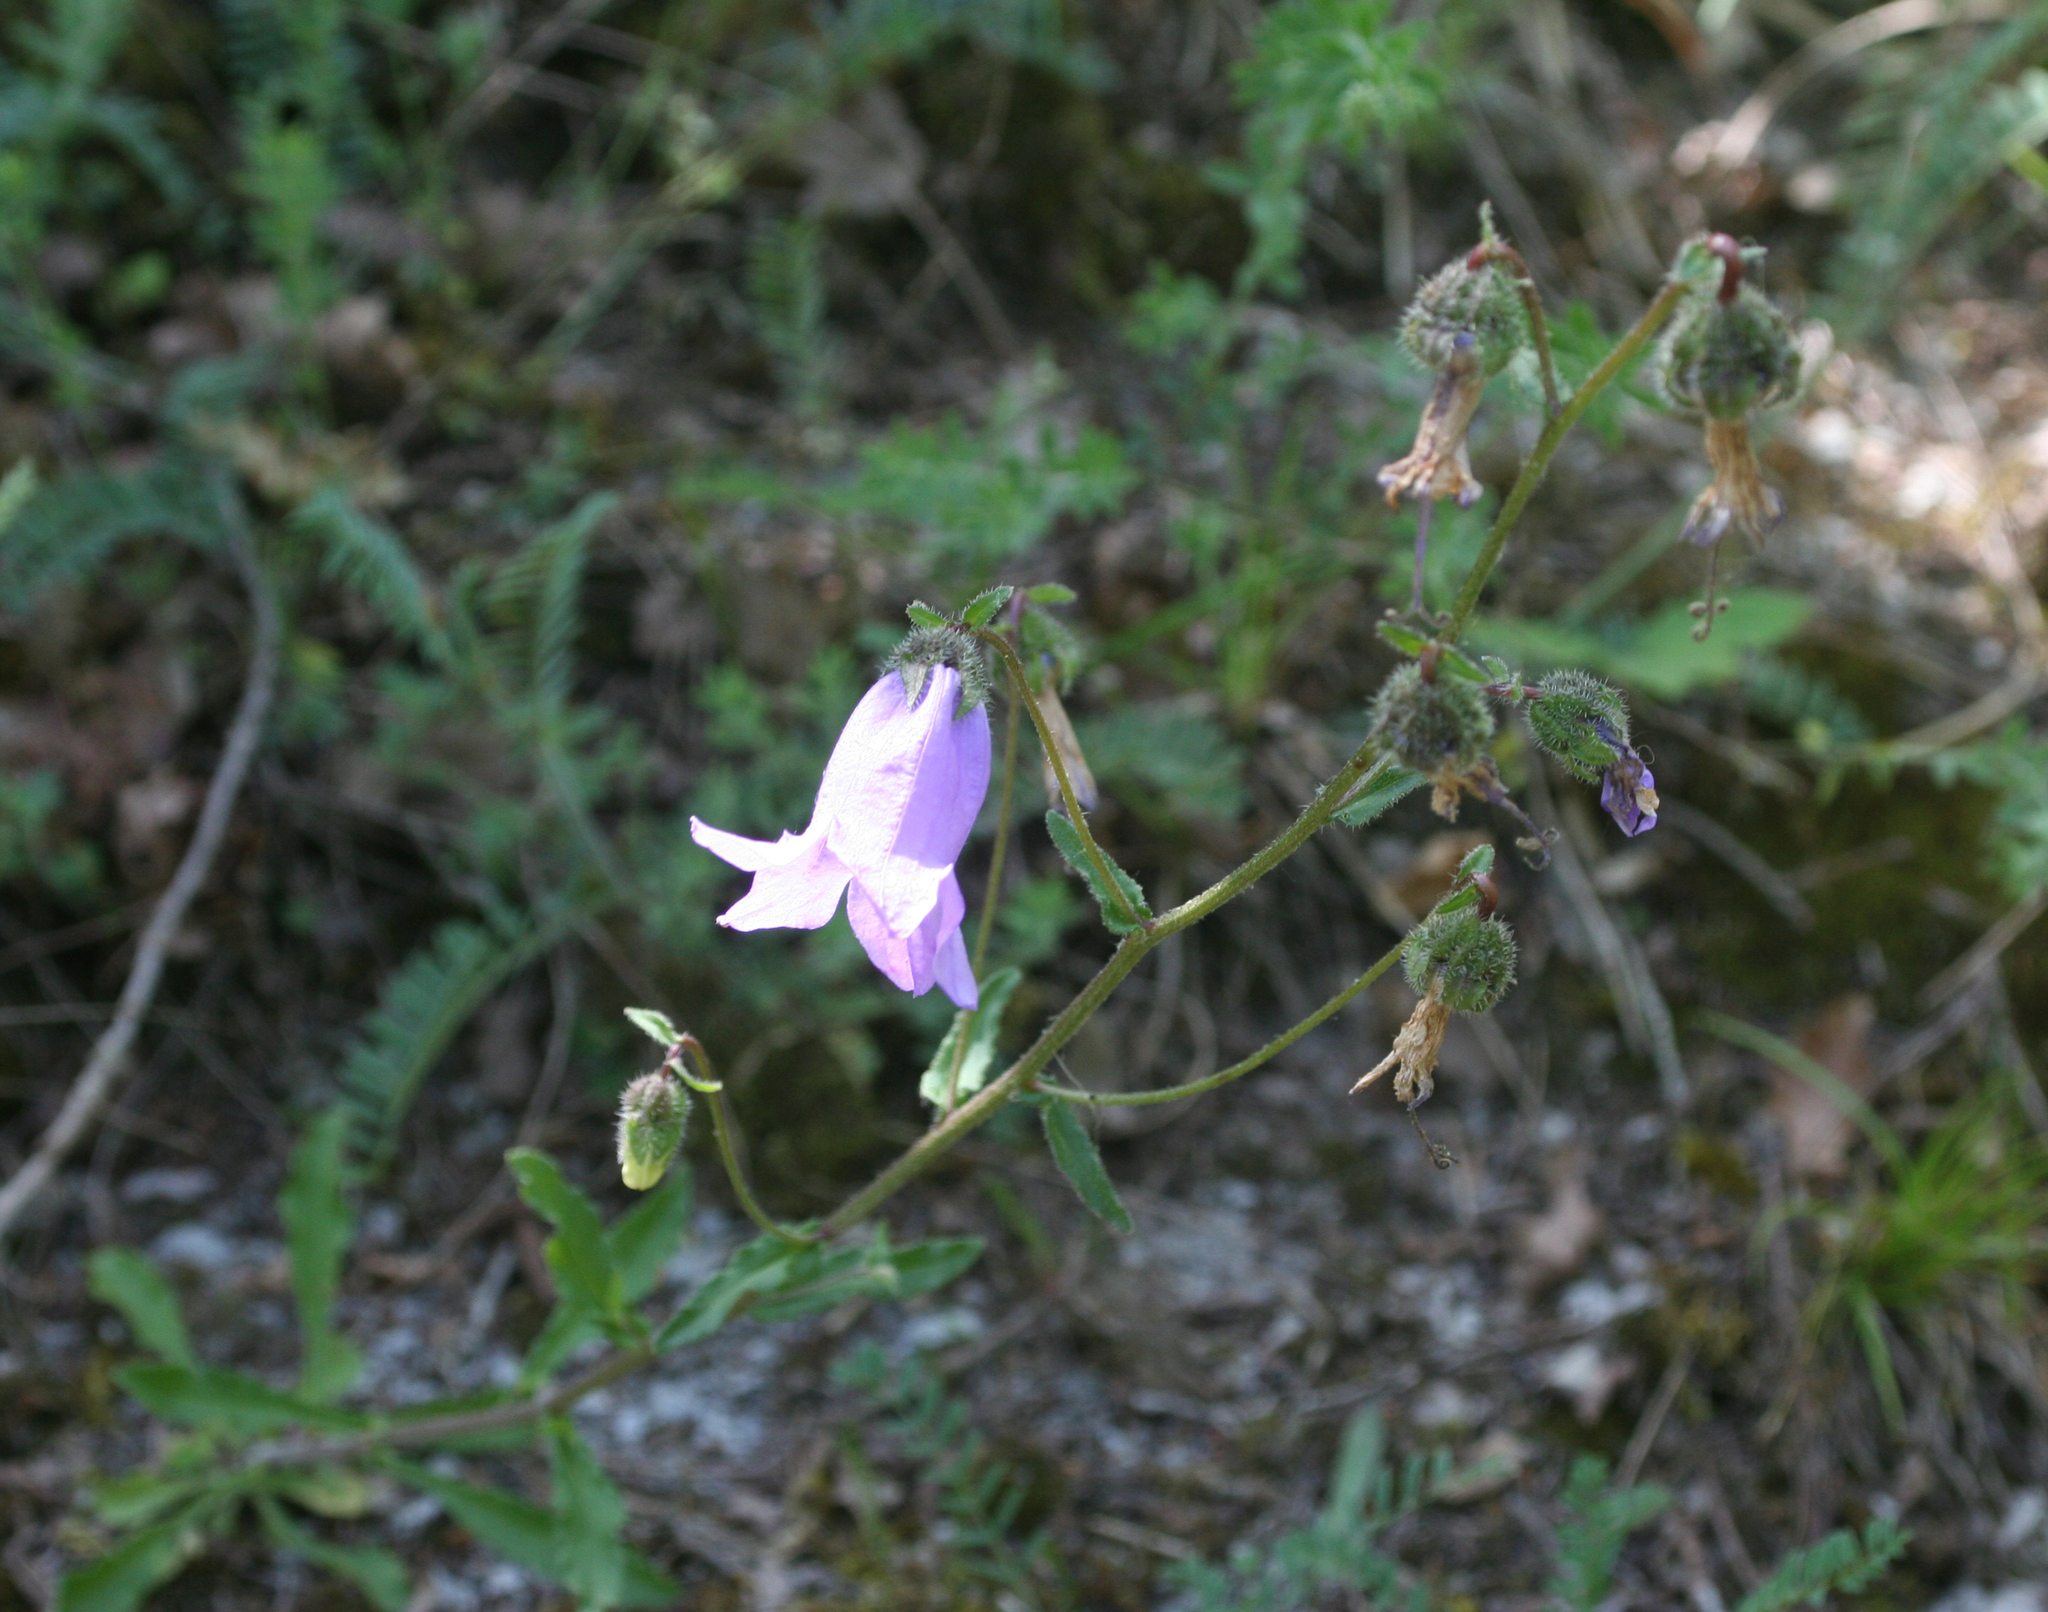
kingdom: Plantae
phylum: Tracheophyta
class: Magnoliopsida
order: Asterales
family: Campanulaceae
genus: Campanula
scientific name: Campanula komarovii
